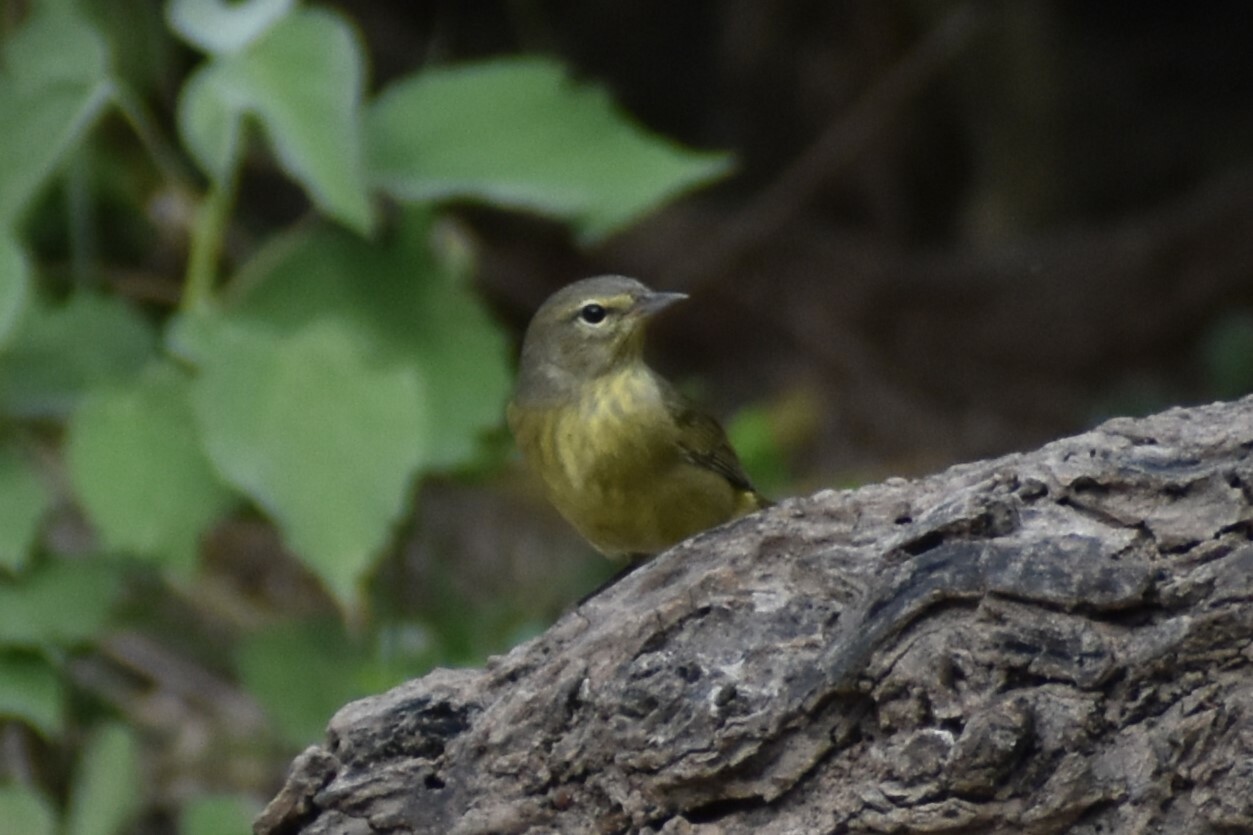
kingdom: Animalia
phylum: Chordata
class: Aves
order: Passeriformes
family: Parulidae
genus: Leiothlypis
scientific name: Leiothlypis celata
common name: Orange-crowned warbler
